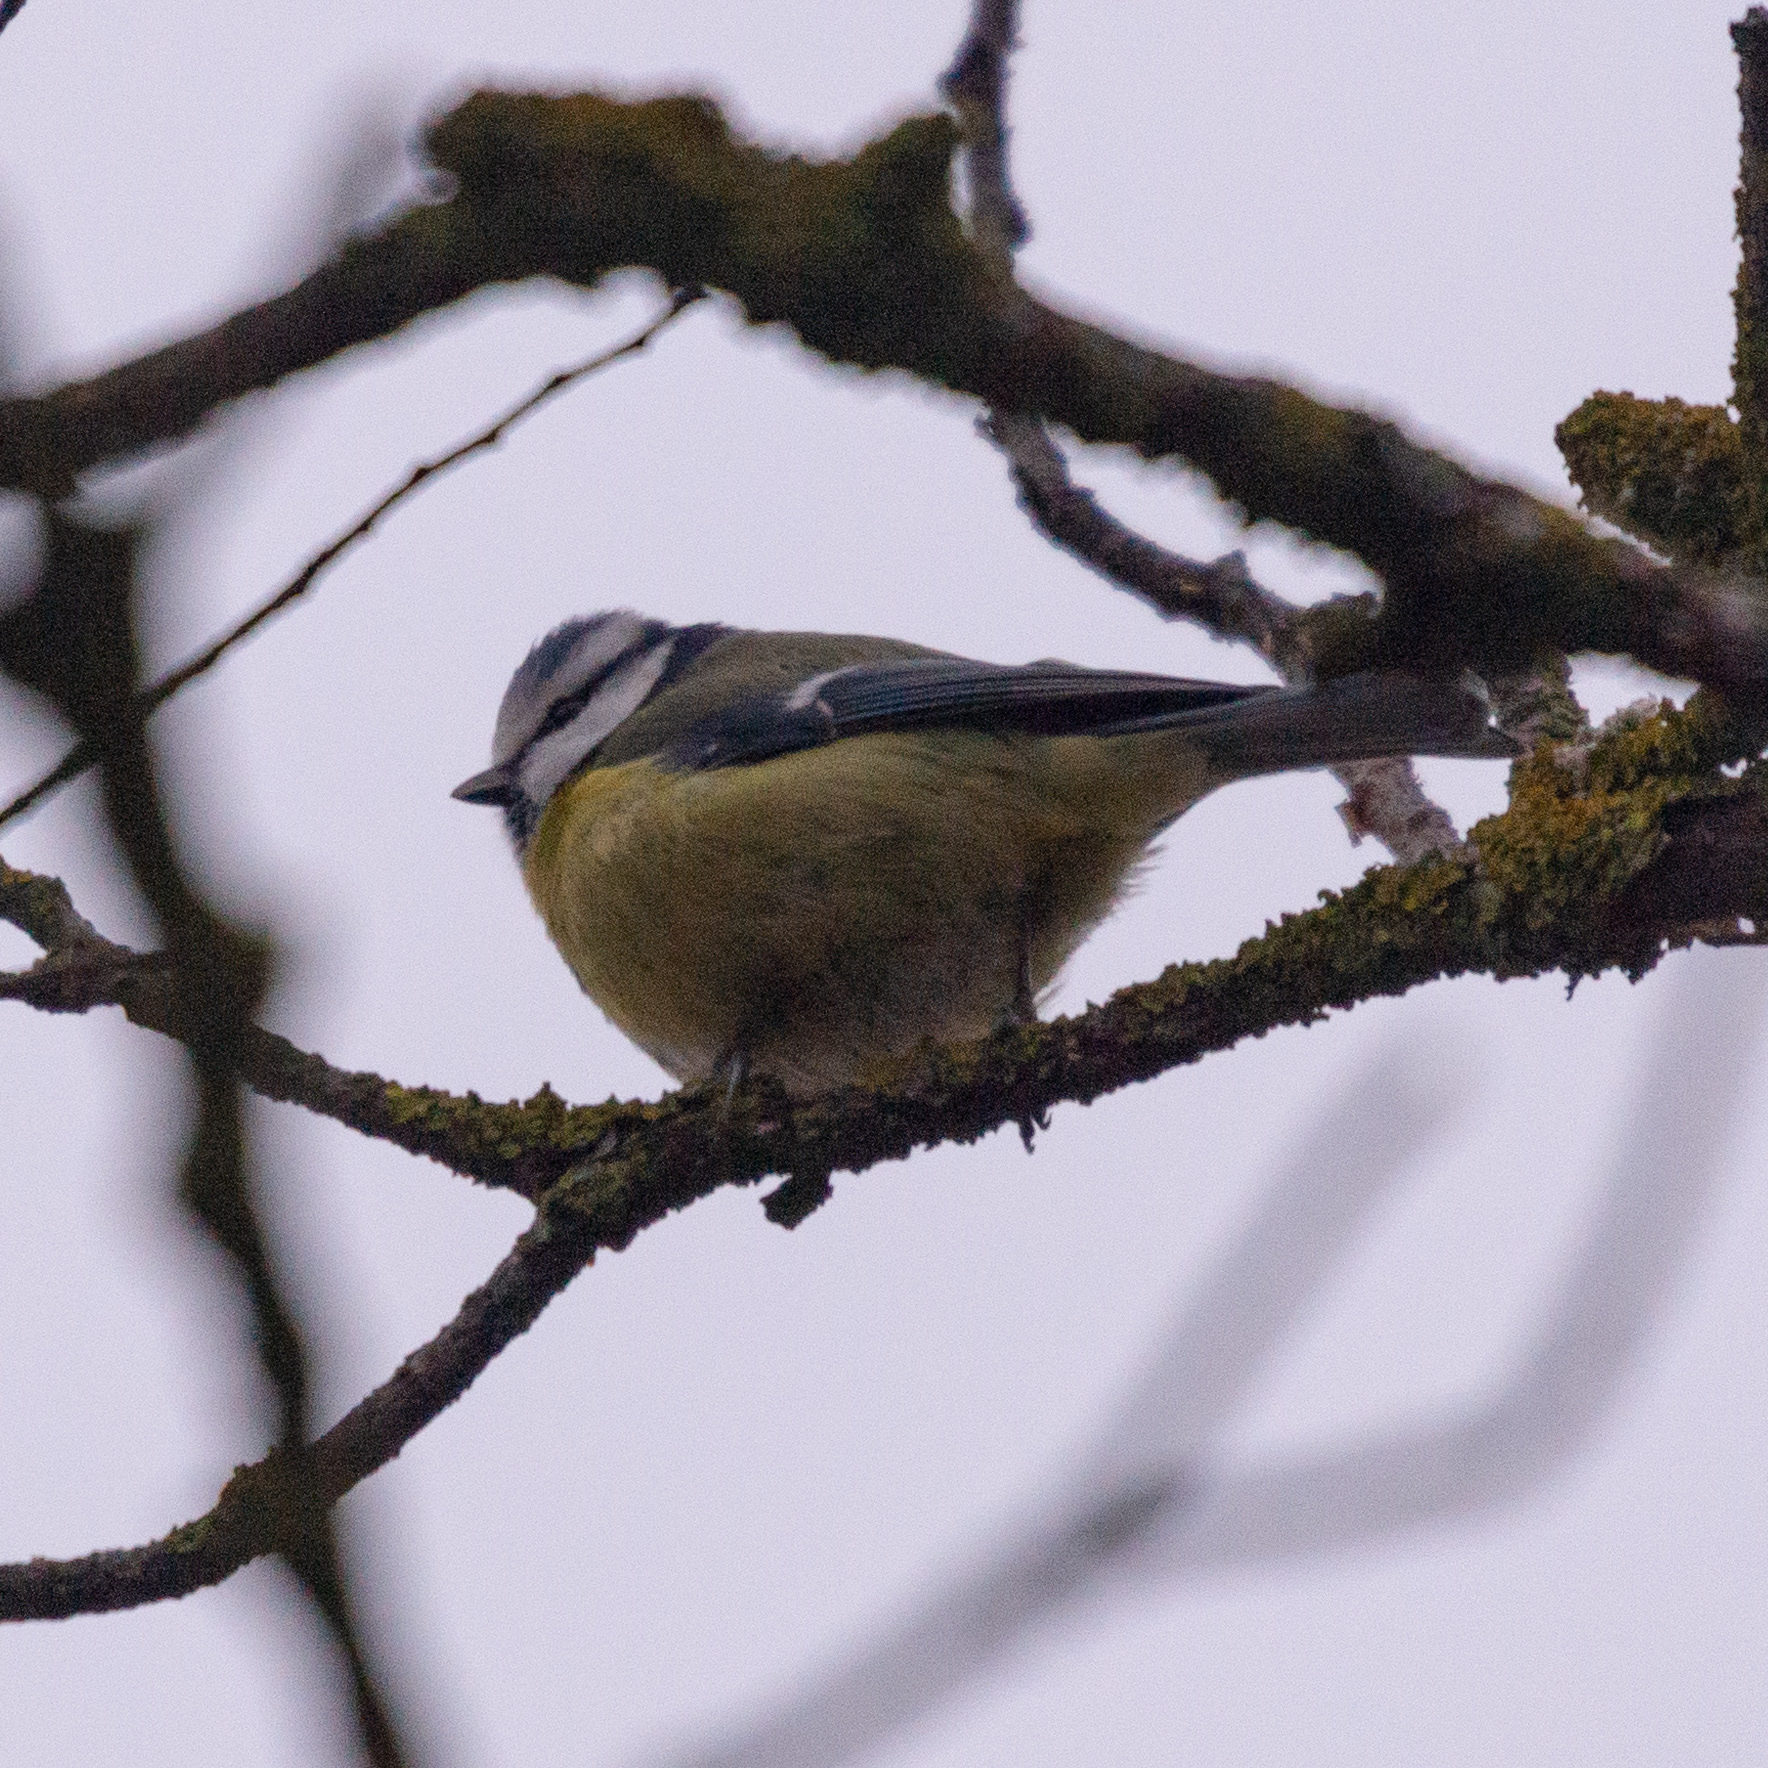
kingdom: Animalia
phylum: Chordata
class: Aves
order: Passeriformes
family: Paridae
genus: Cyanistes
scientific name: Cyanistes caeruleus
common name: Eurasian blue tit
